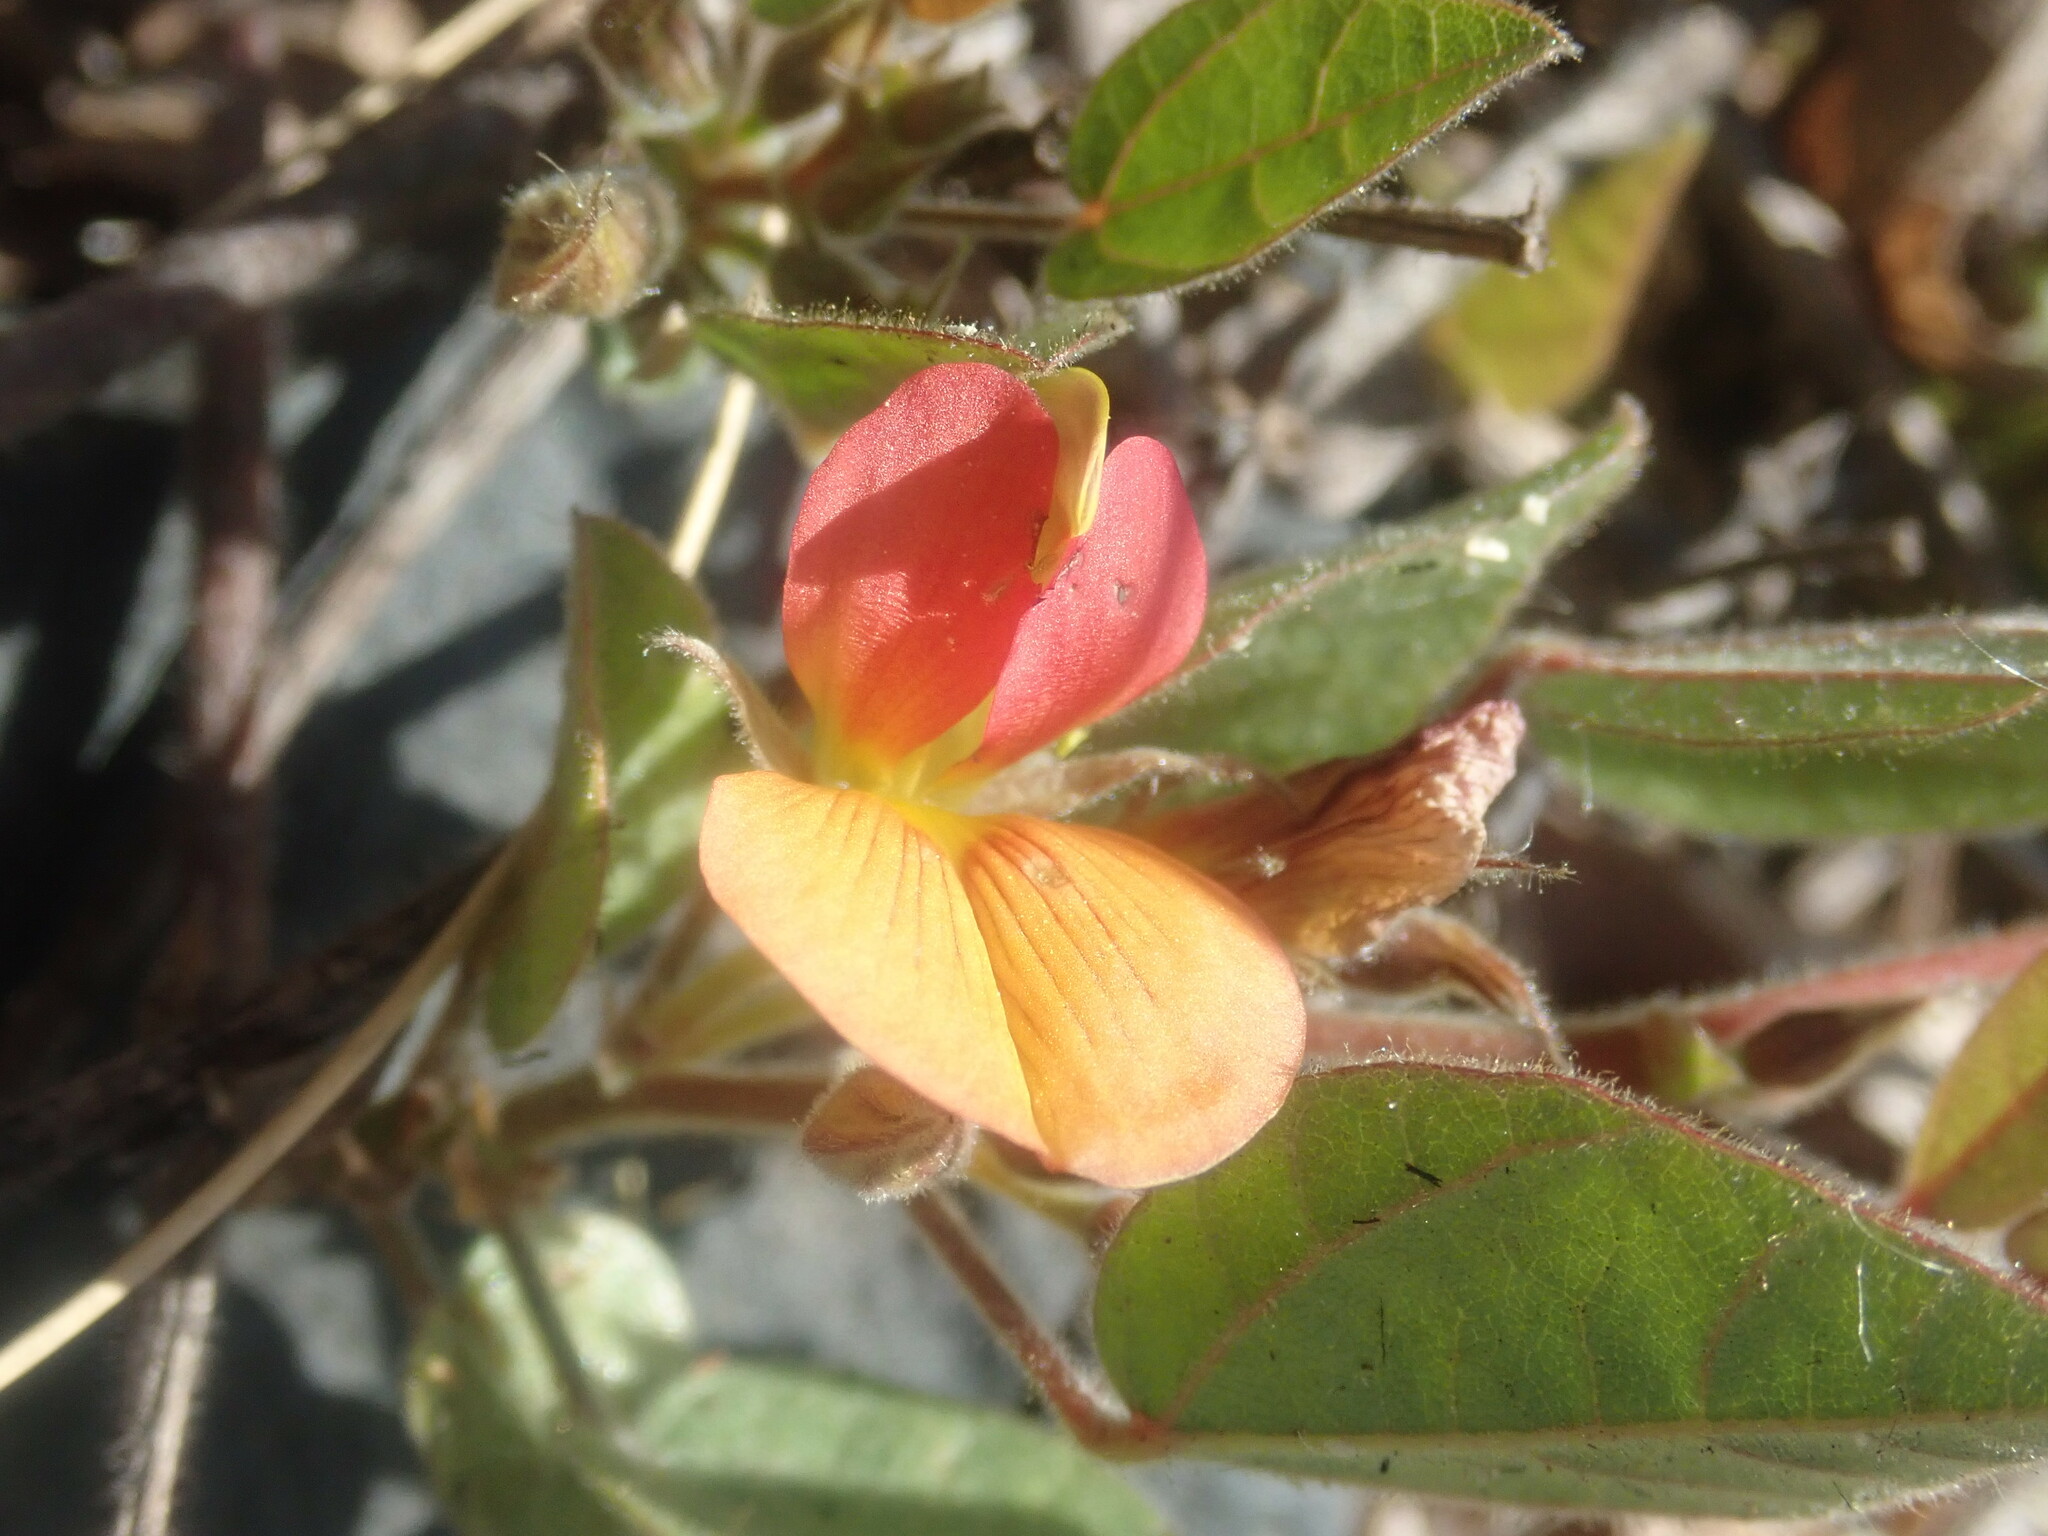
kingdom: Plantae
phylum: Tracheophyta
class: Magnoliopsida
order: Fabales
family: Fabaceae
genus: Rhynchosia
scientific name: Rhynchosia monophylla
